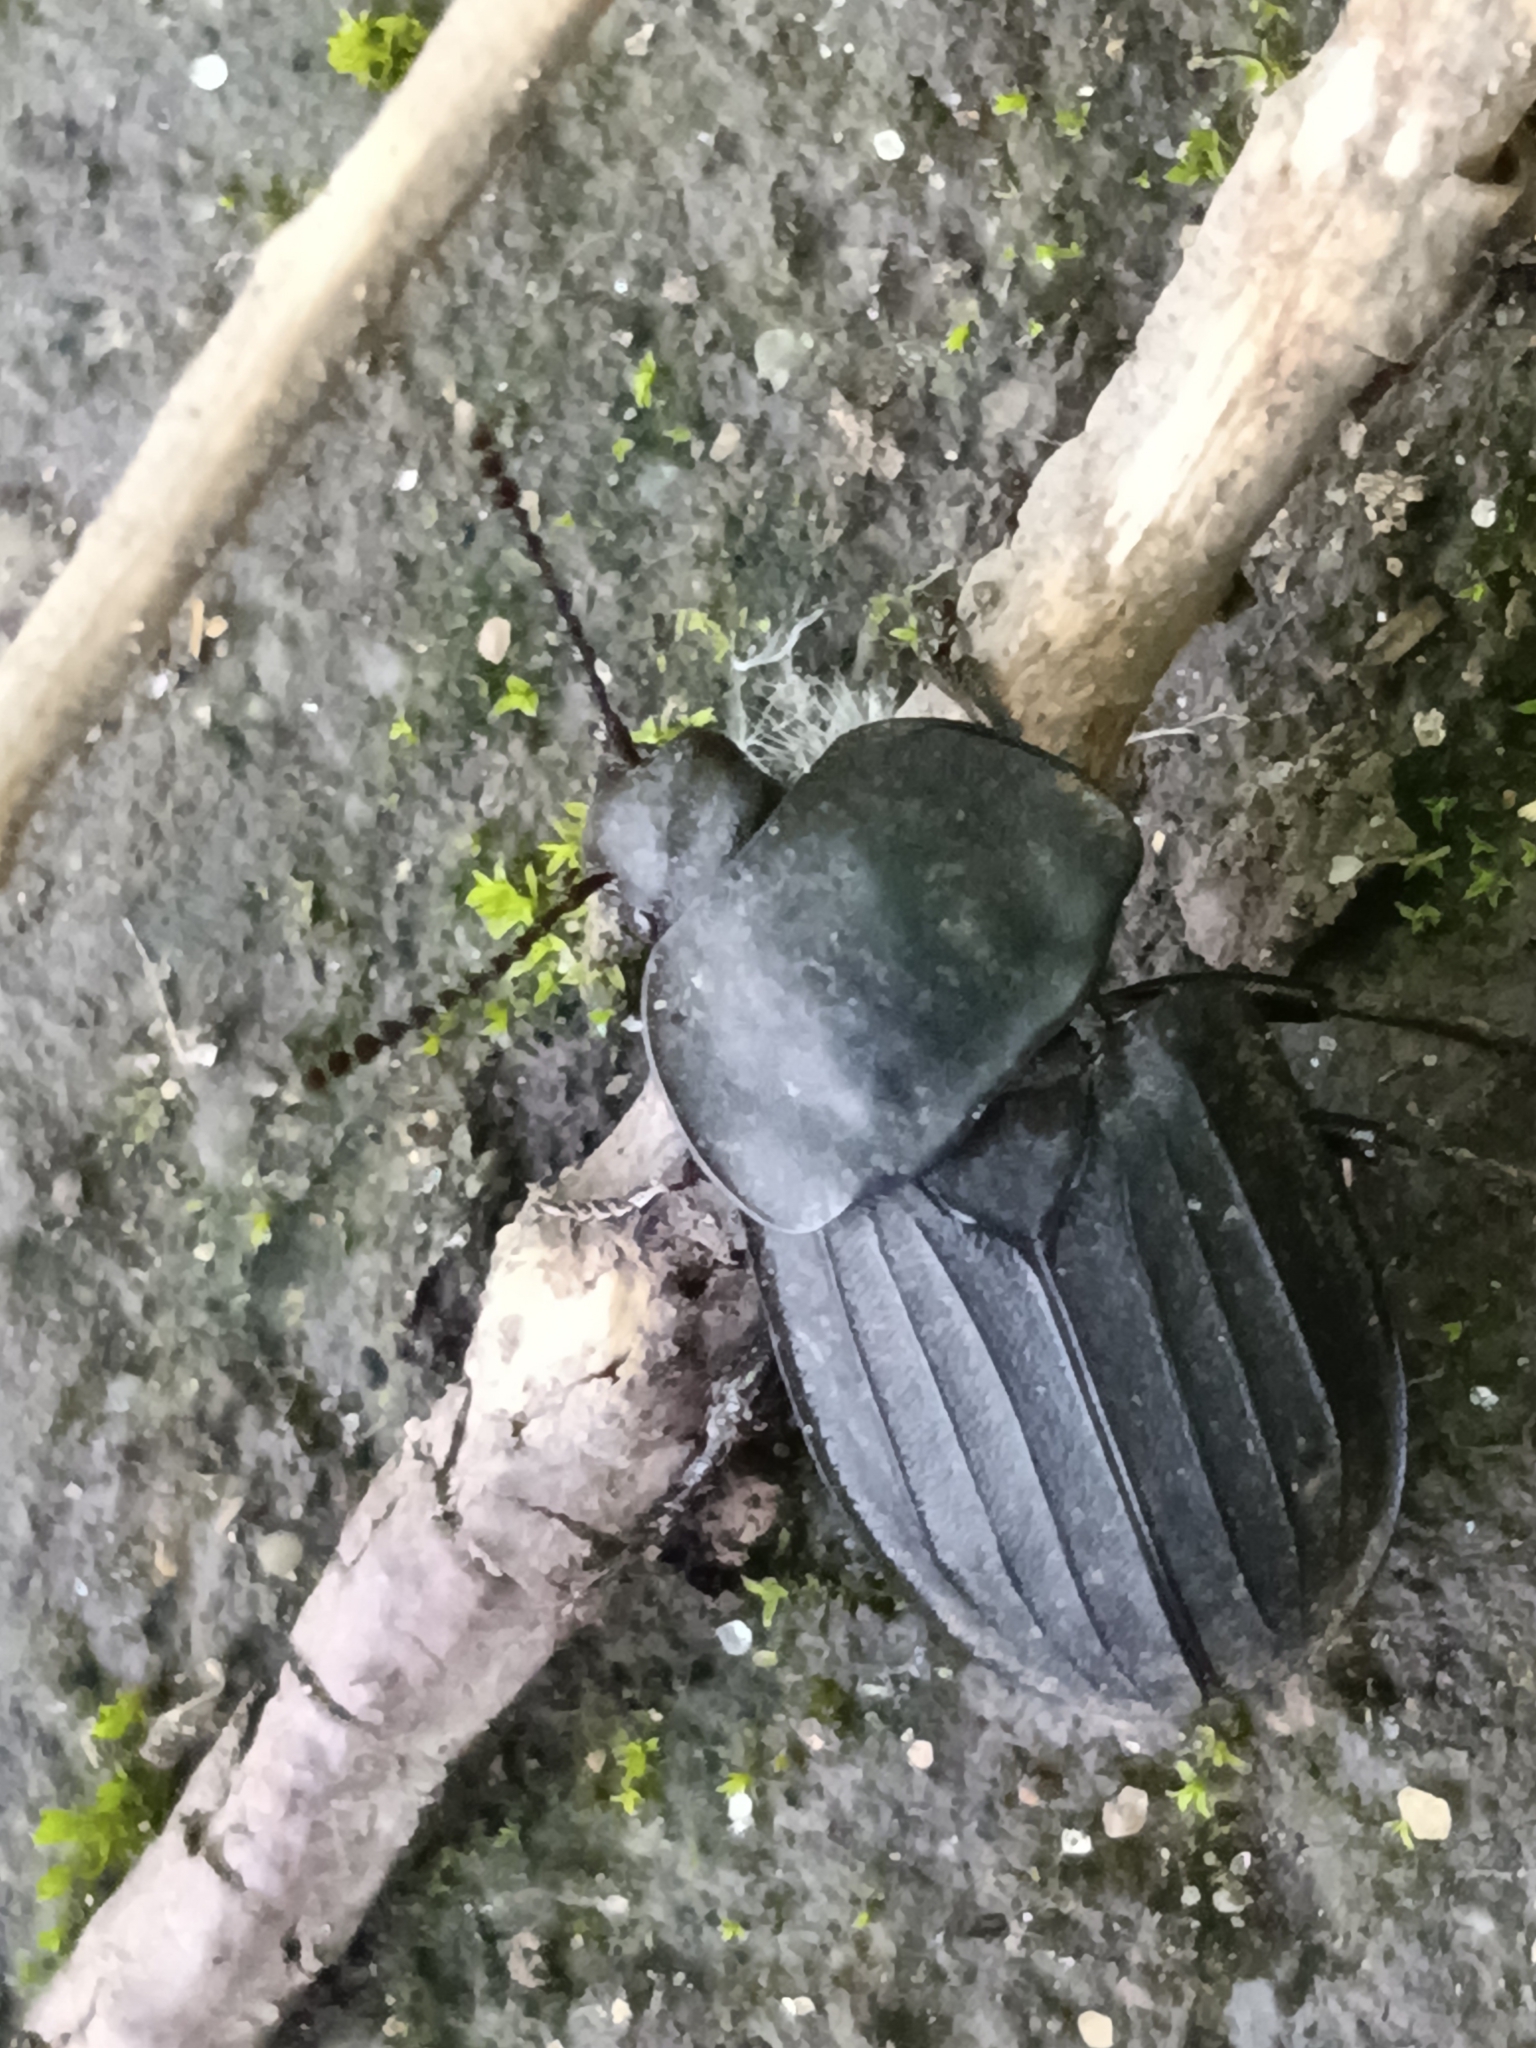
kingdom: Animalia
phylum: Arthropoda
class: Insecta
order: Coleoptera
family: Staphylinidae
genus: Silpha
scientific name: Silpha tristis
